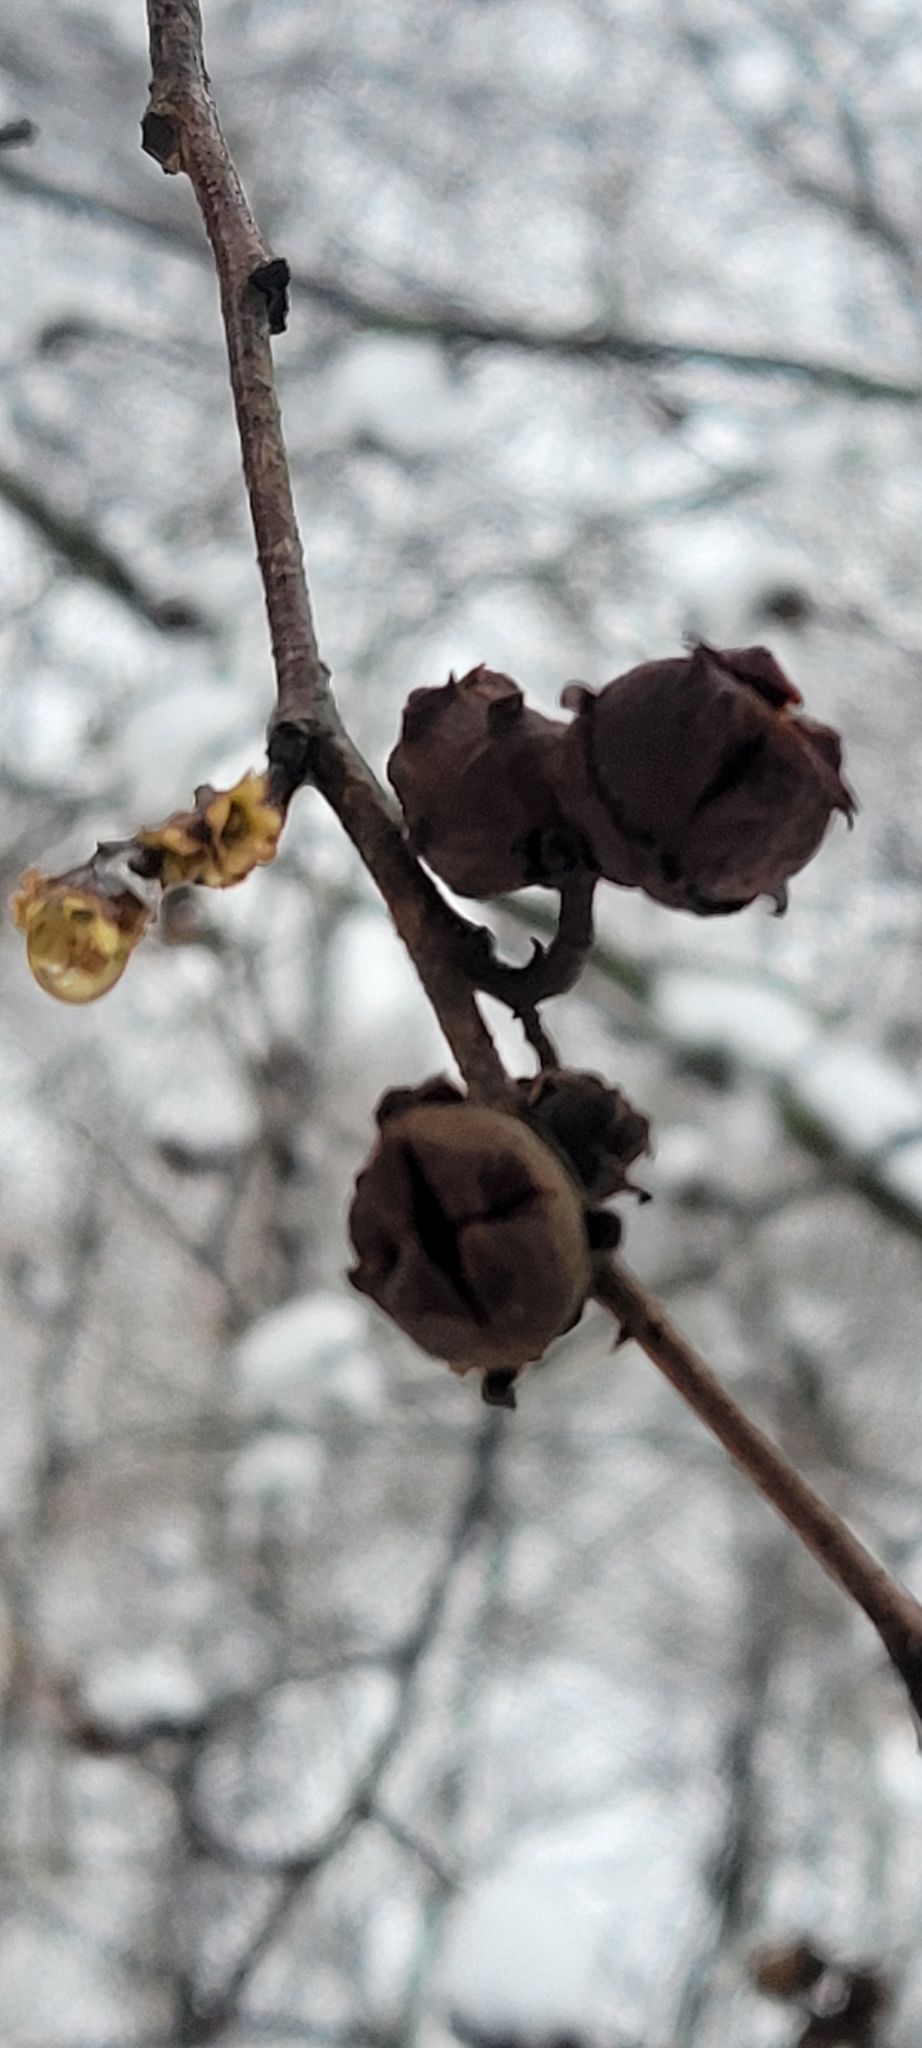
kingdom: Plantae
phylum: Tracheophyta
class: Magnoliopsida
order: Saxifragales
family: Hamamelidaceae
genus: Hamamelis
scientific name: Hamamelis virginiana
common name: Witch-hazel
